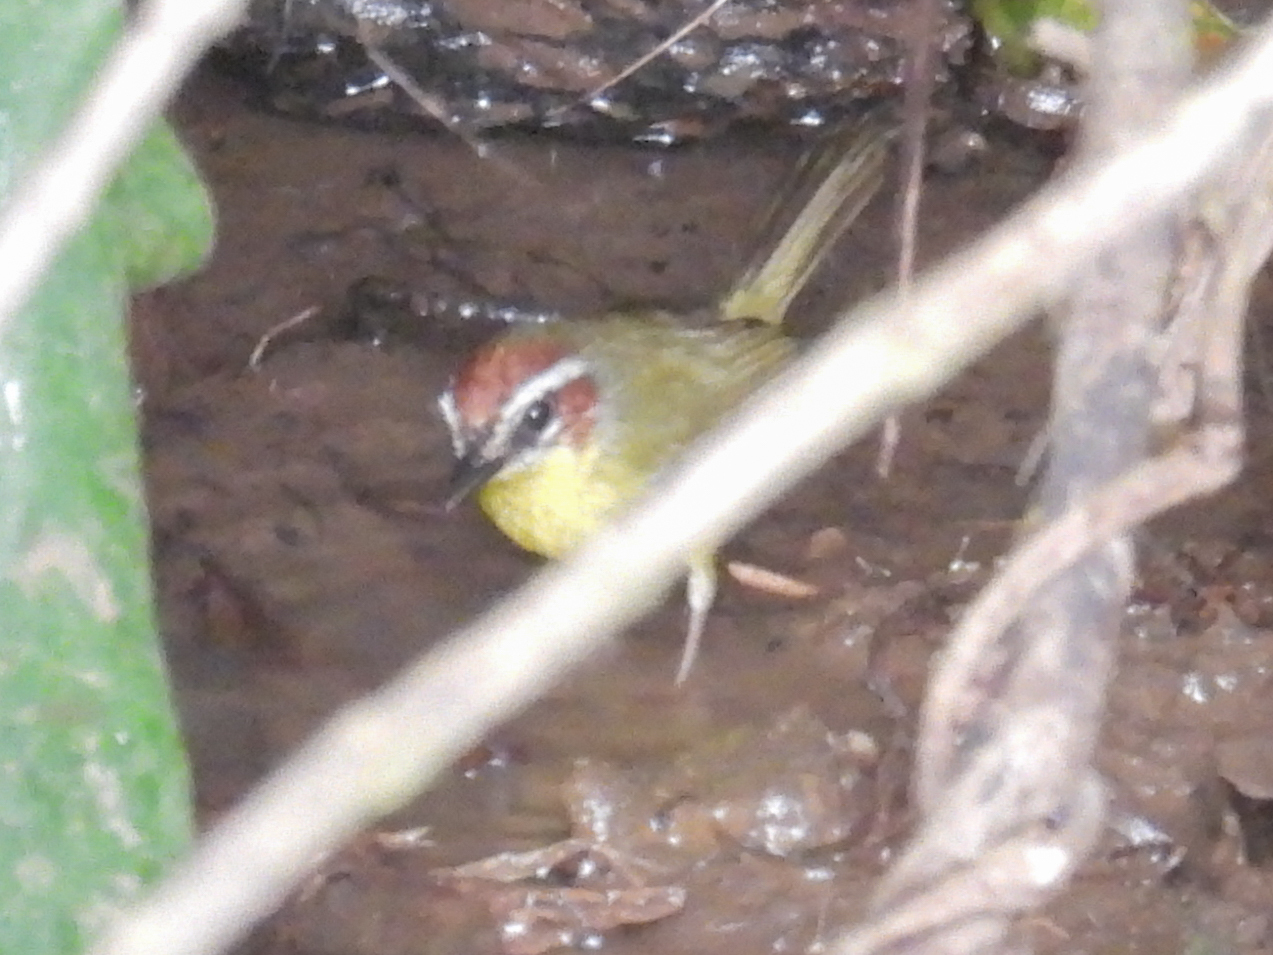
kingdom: Animalia
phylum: Chordata
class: Aves
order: Passeriformes
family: Parulidae
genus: Basileuterus
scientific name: Basileuterus rufifrons
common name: Rufous-capped warbler
